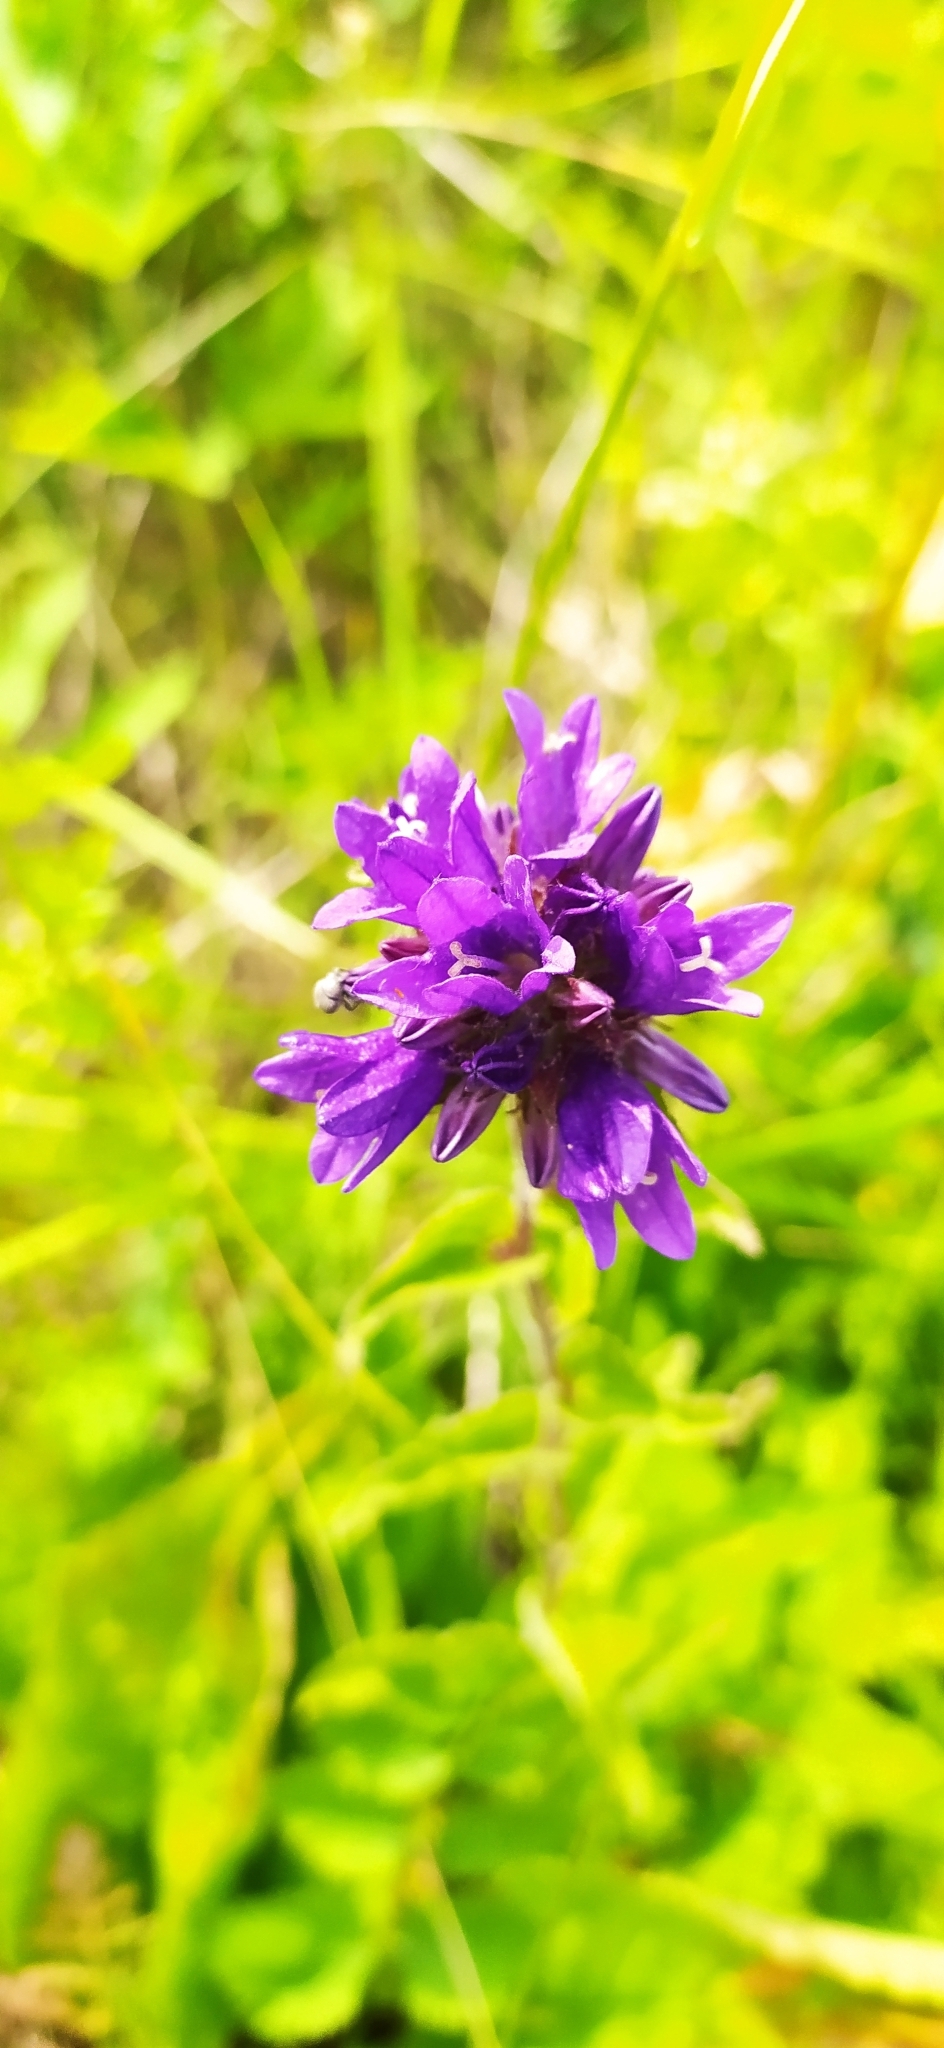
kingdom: Plantae
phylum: Tracheophyta
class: Magnoliopsida
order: Asterales
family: Campanulaceae
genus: Campanula
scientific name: Campanula glomerata
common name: Clustered bellflower
